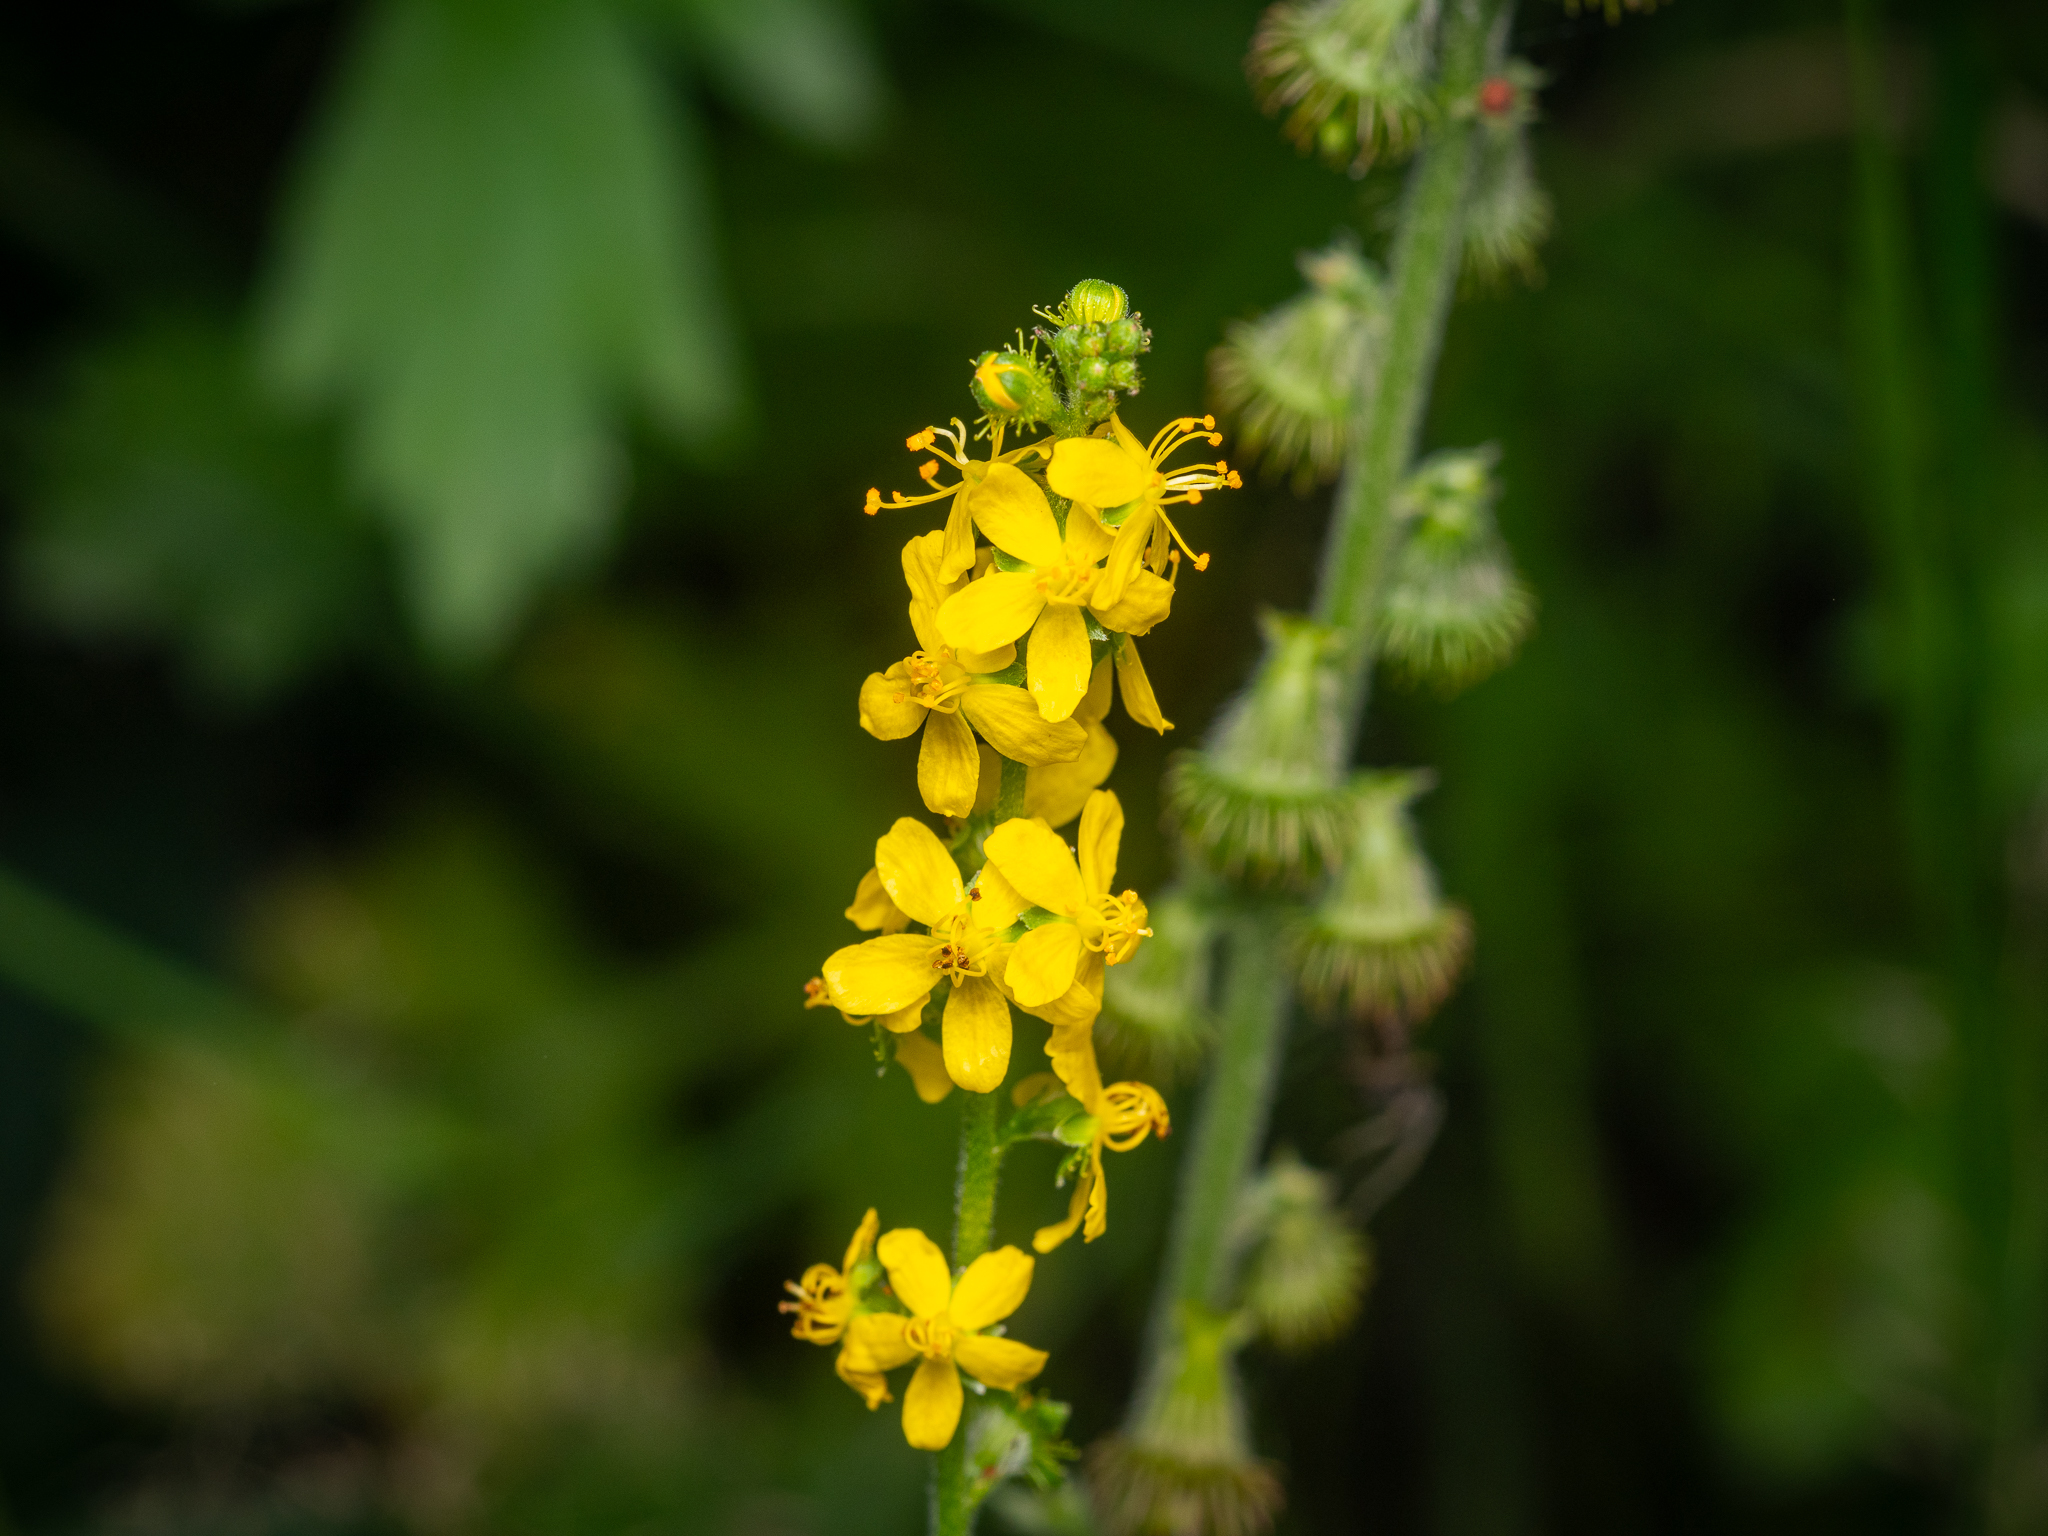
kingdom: Plantae
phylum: Tracheophyta
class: Magnoliopsida
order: Rosales
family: Rosaceae
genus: Agrimonia
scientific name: Agrimonia eupatoria
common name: Agrimony
